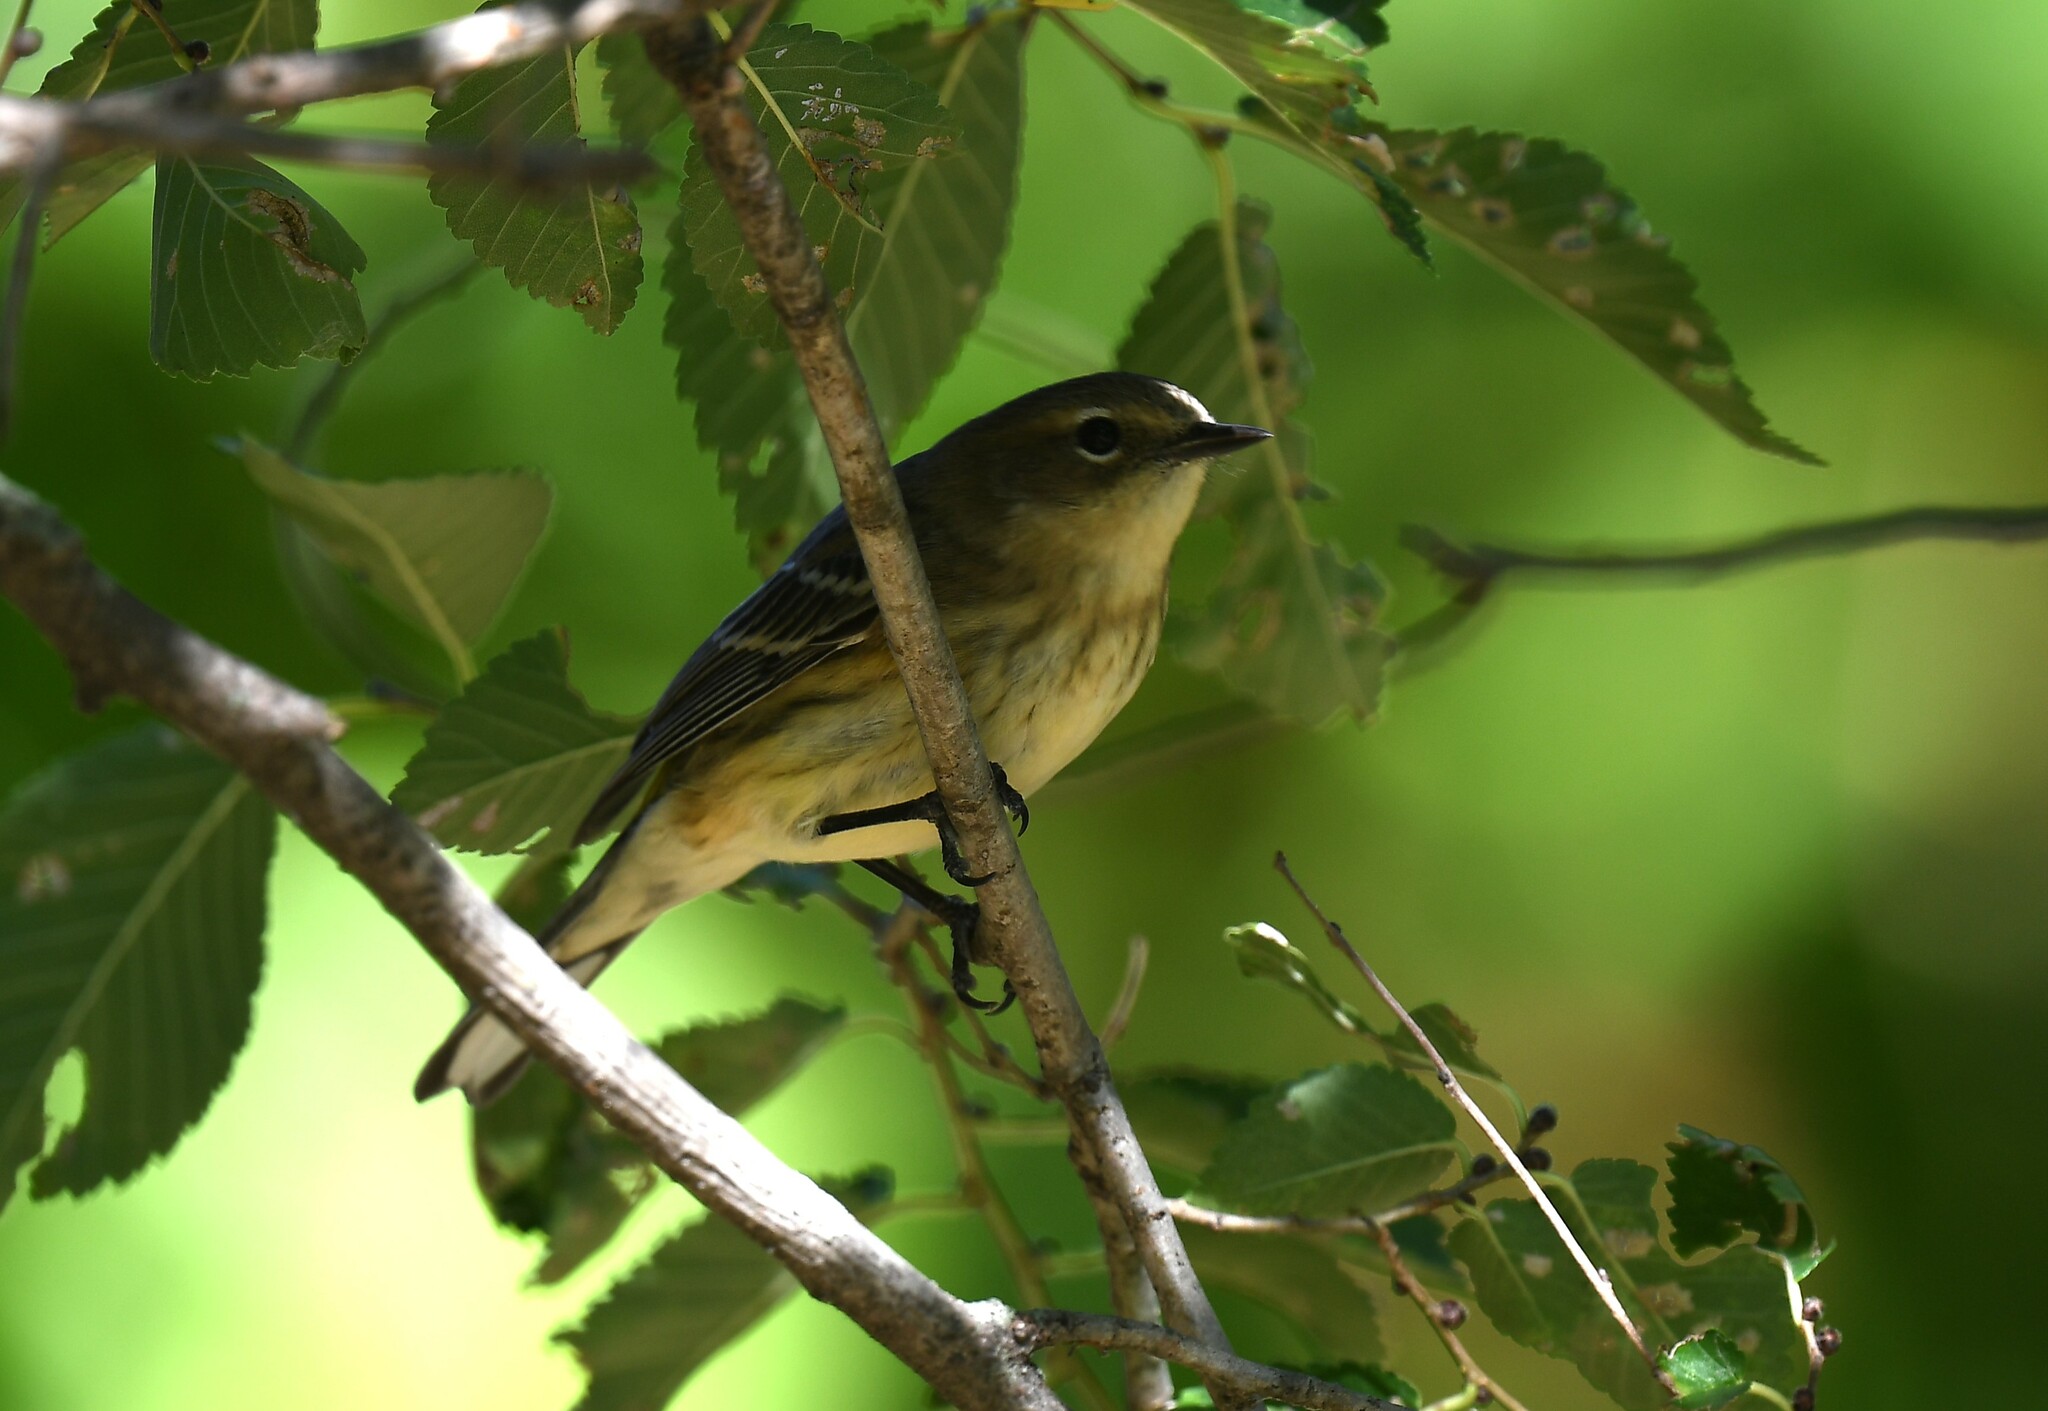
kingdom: Animalia
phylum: Chordata
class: Aves
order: Passeriformes
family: Parulidae
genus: Setophaga
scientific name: Setophaga coronata
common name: Myrtle warbler
